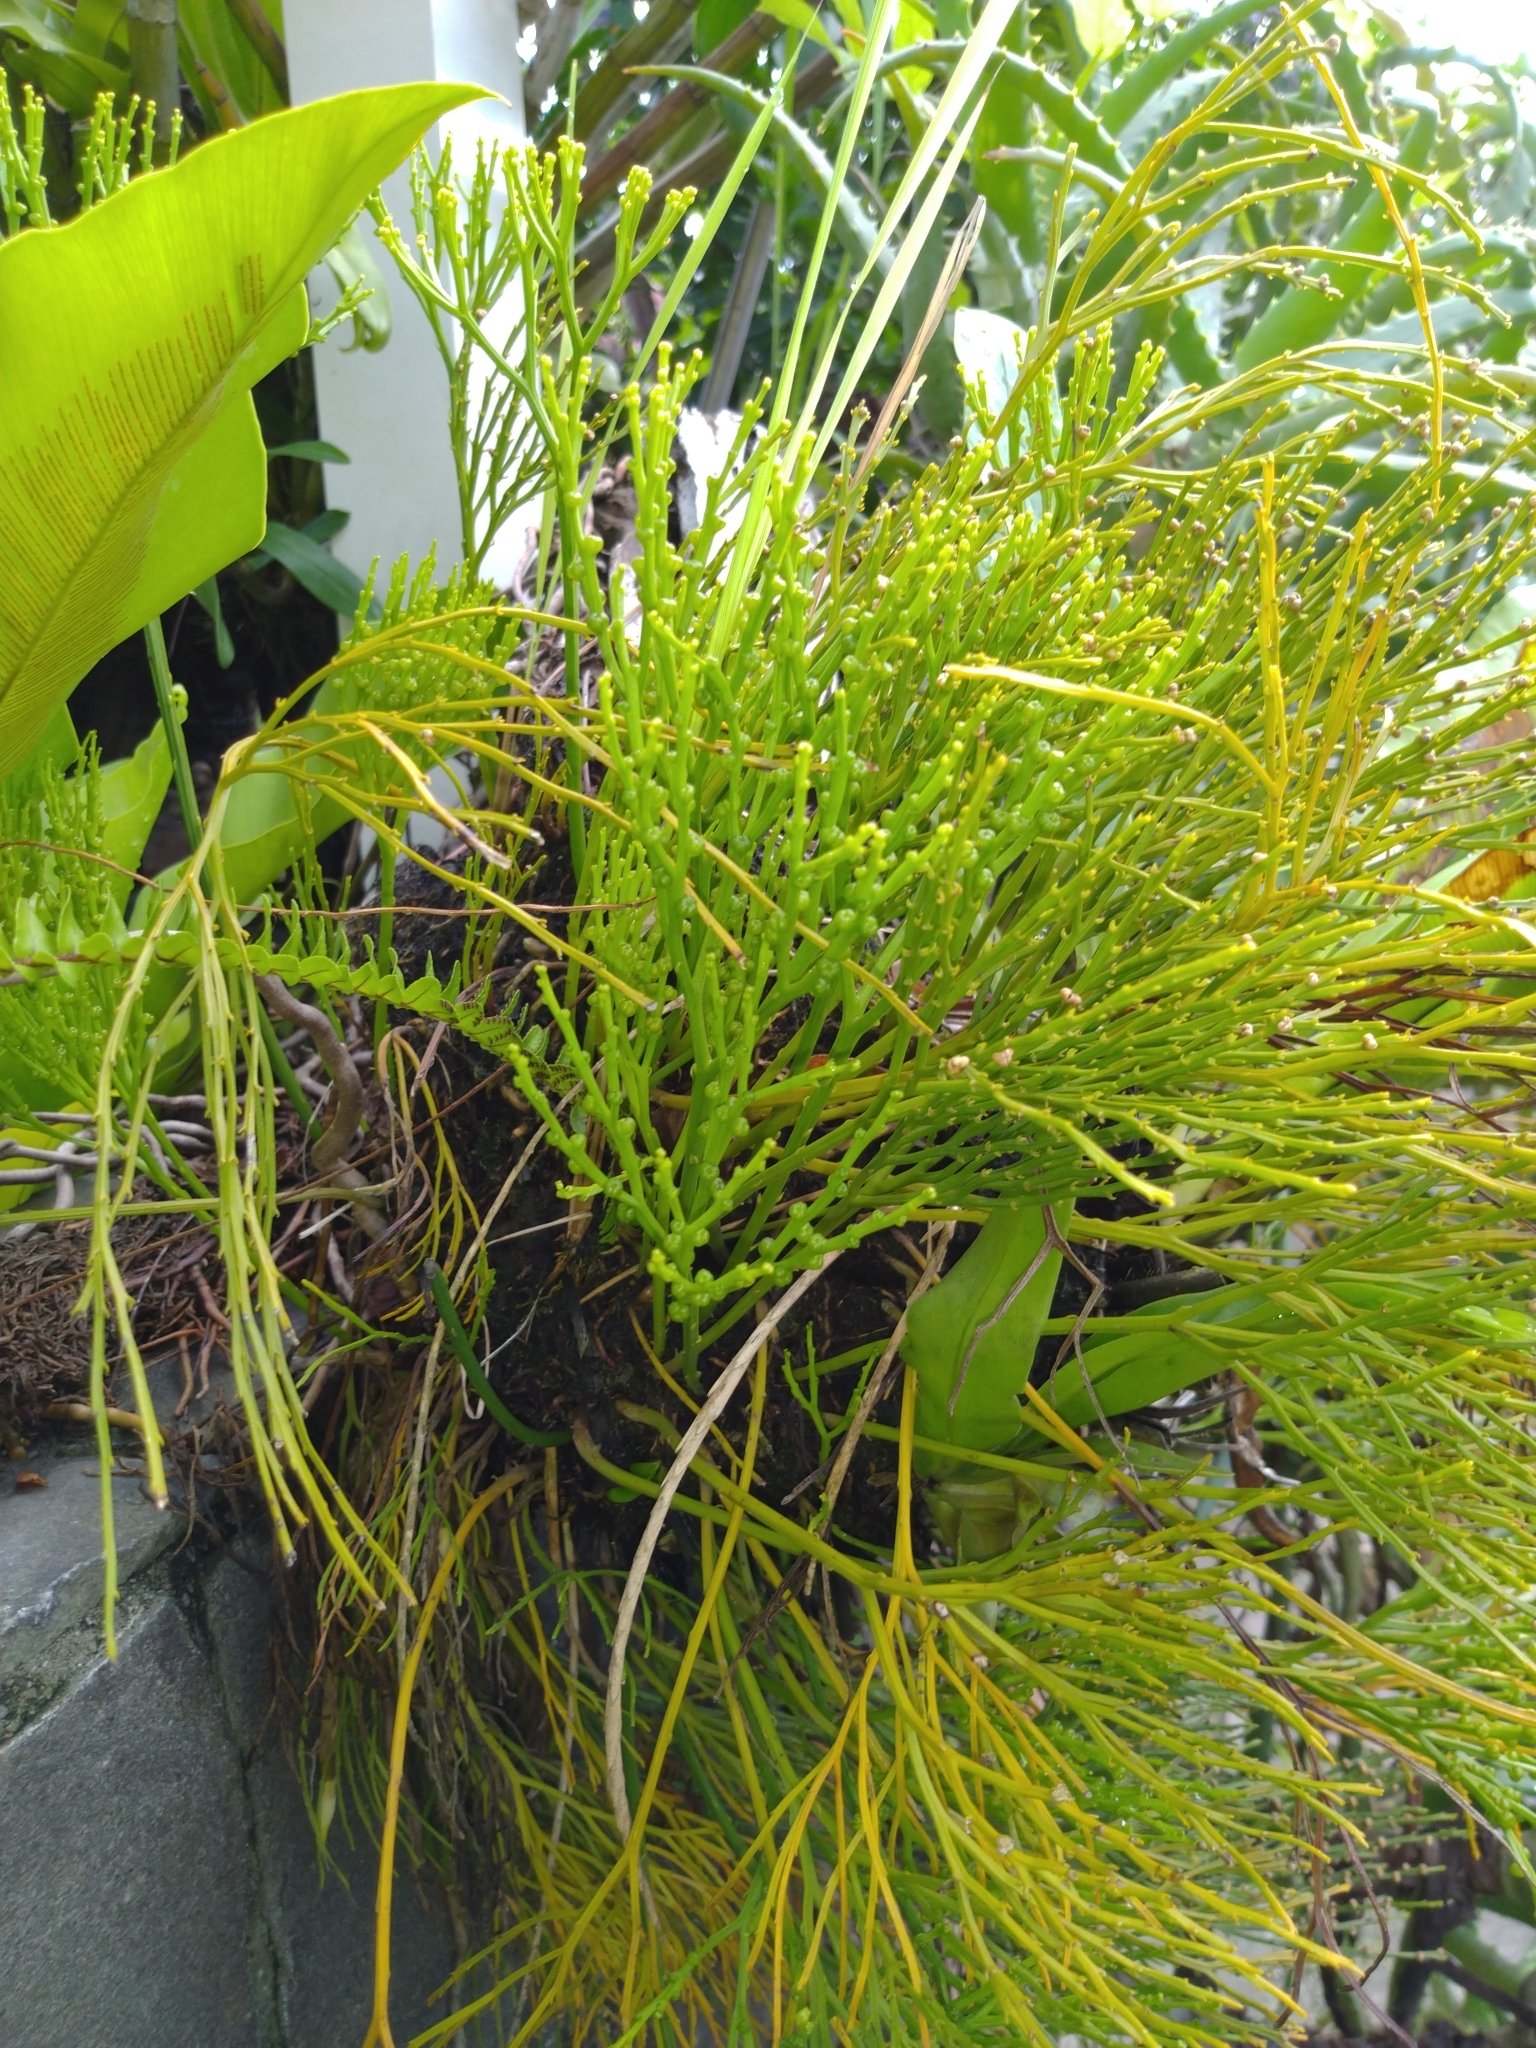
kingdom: Plantae
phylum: Tracheophyta
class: Polypodiopsida
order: Psilotales
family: Psilotaceae
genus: Psilotum
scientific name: Psilotum nudum
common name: Skeleton fork fern
